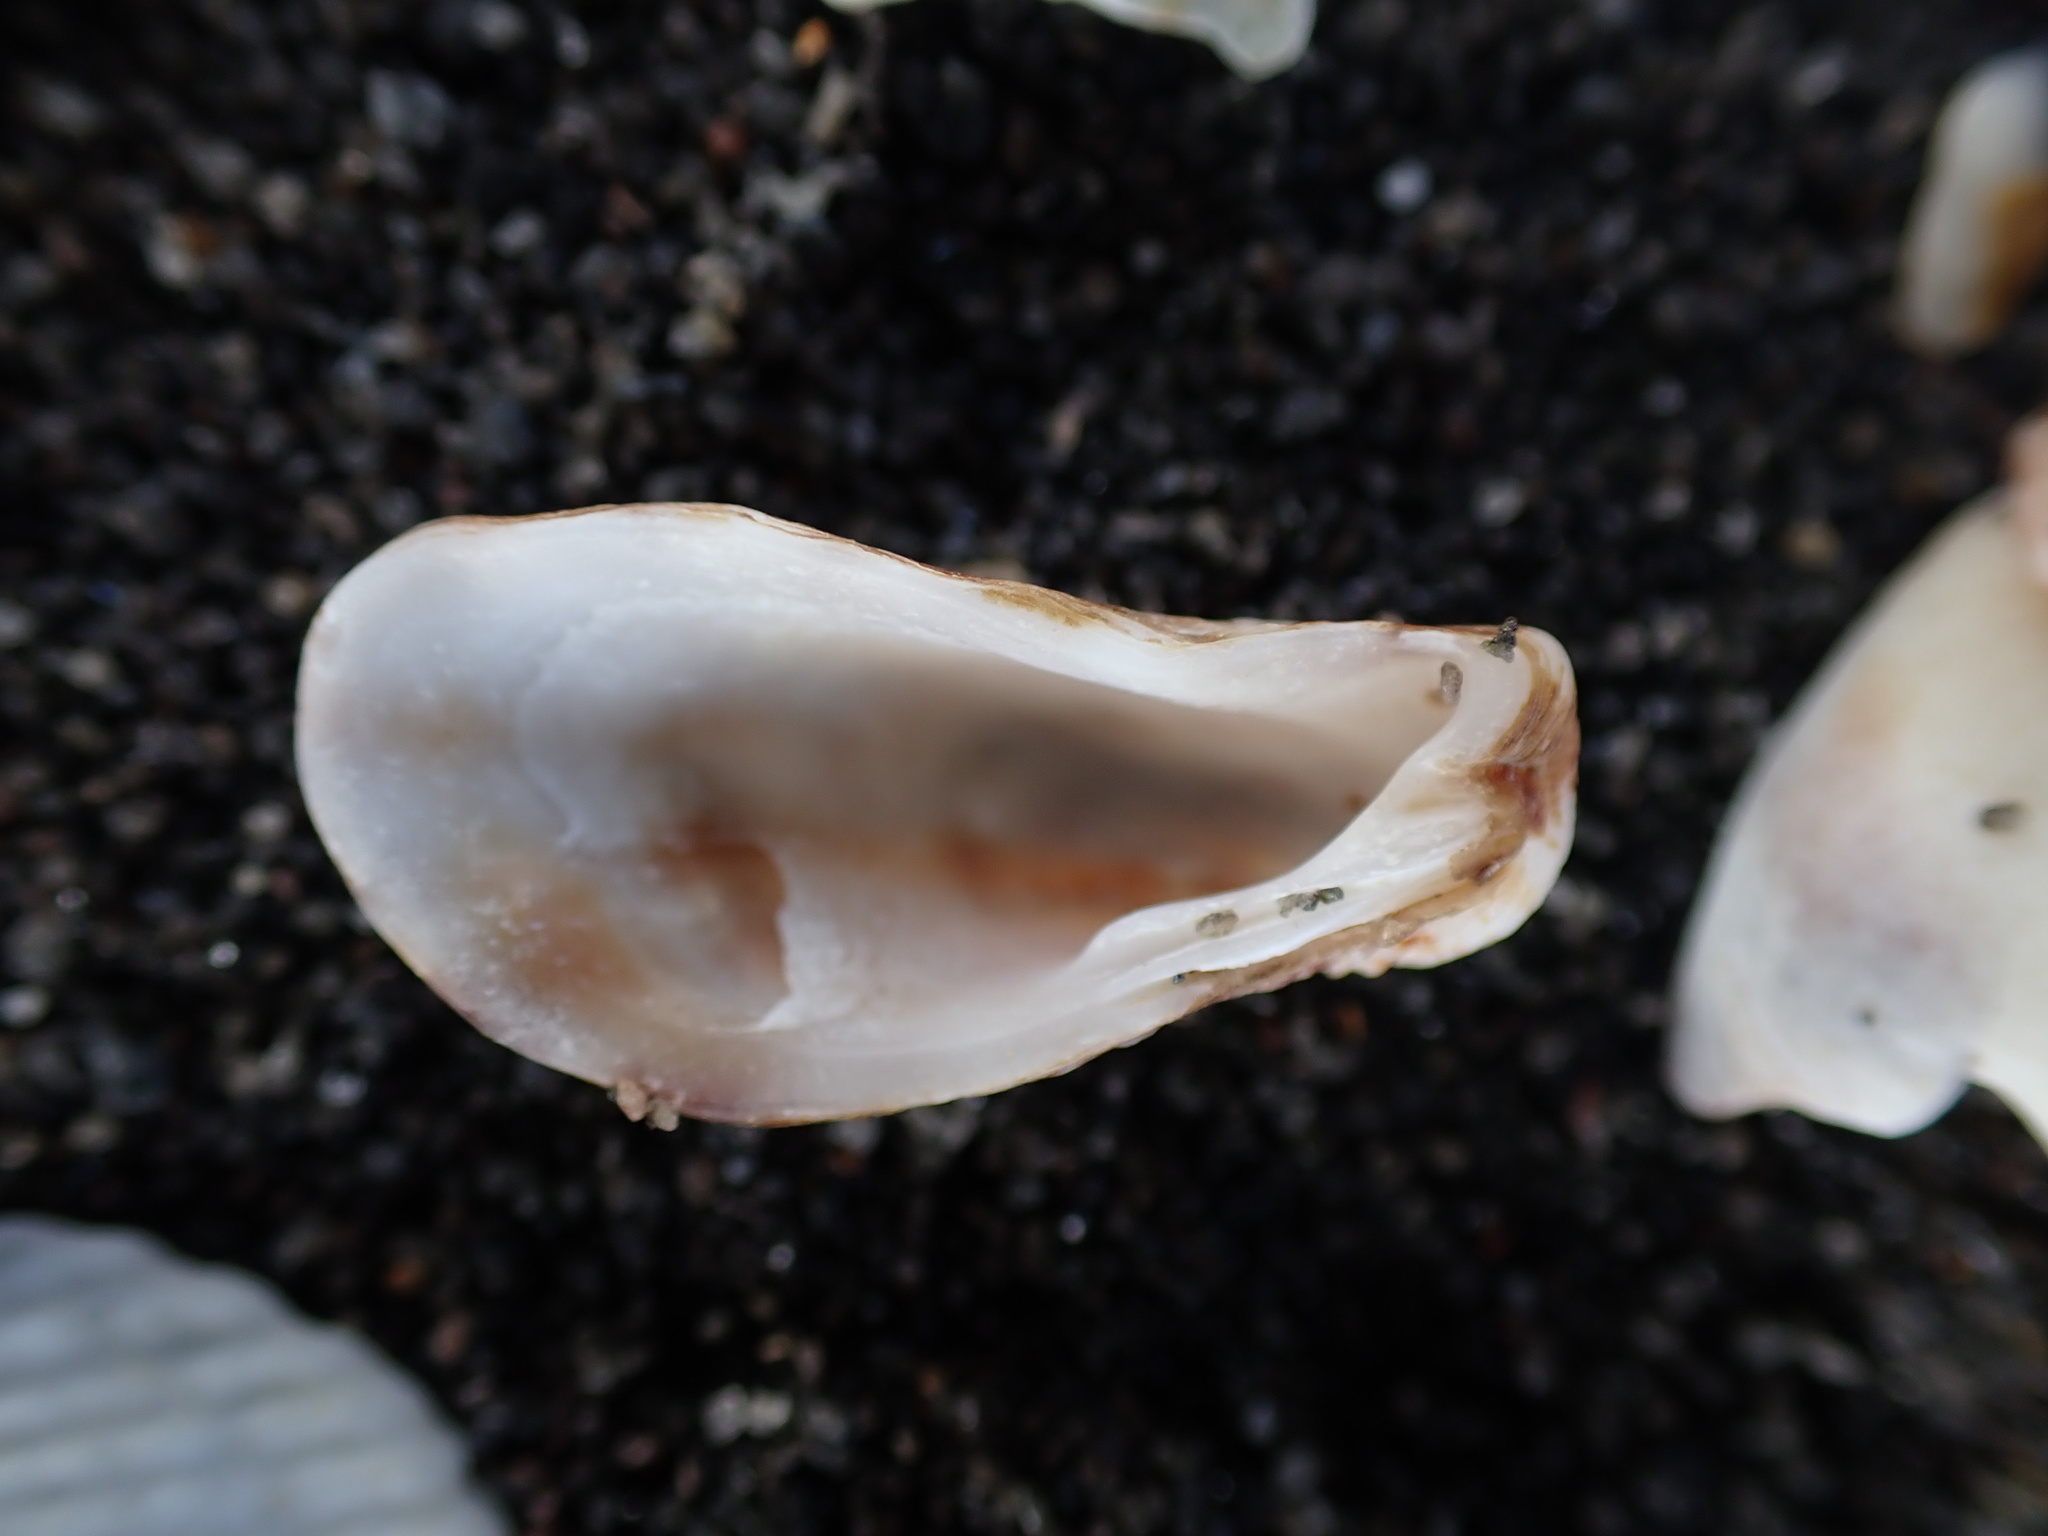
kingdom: Animalia
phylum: Mollusca
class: Bivalvia
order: Carditida
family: Carditidae
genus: Cardita
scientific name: Cardita distorta
